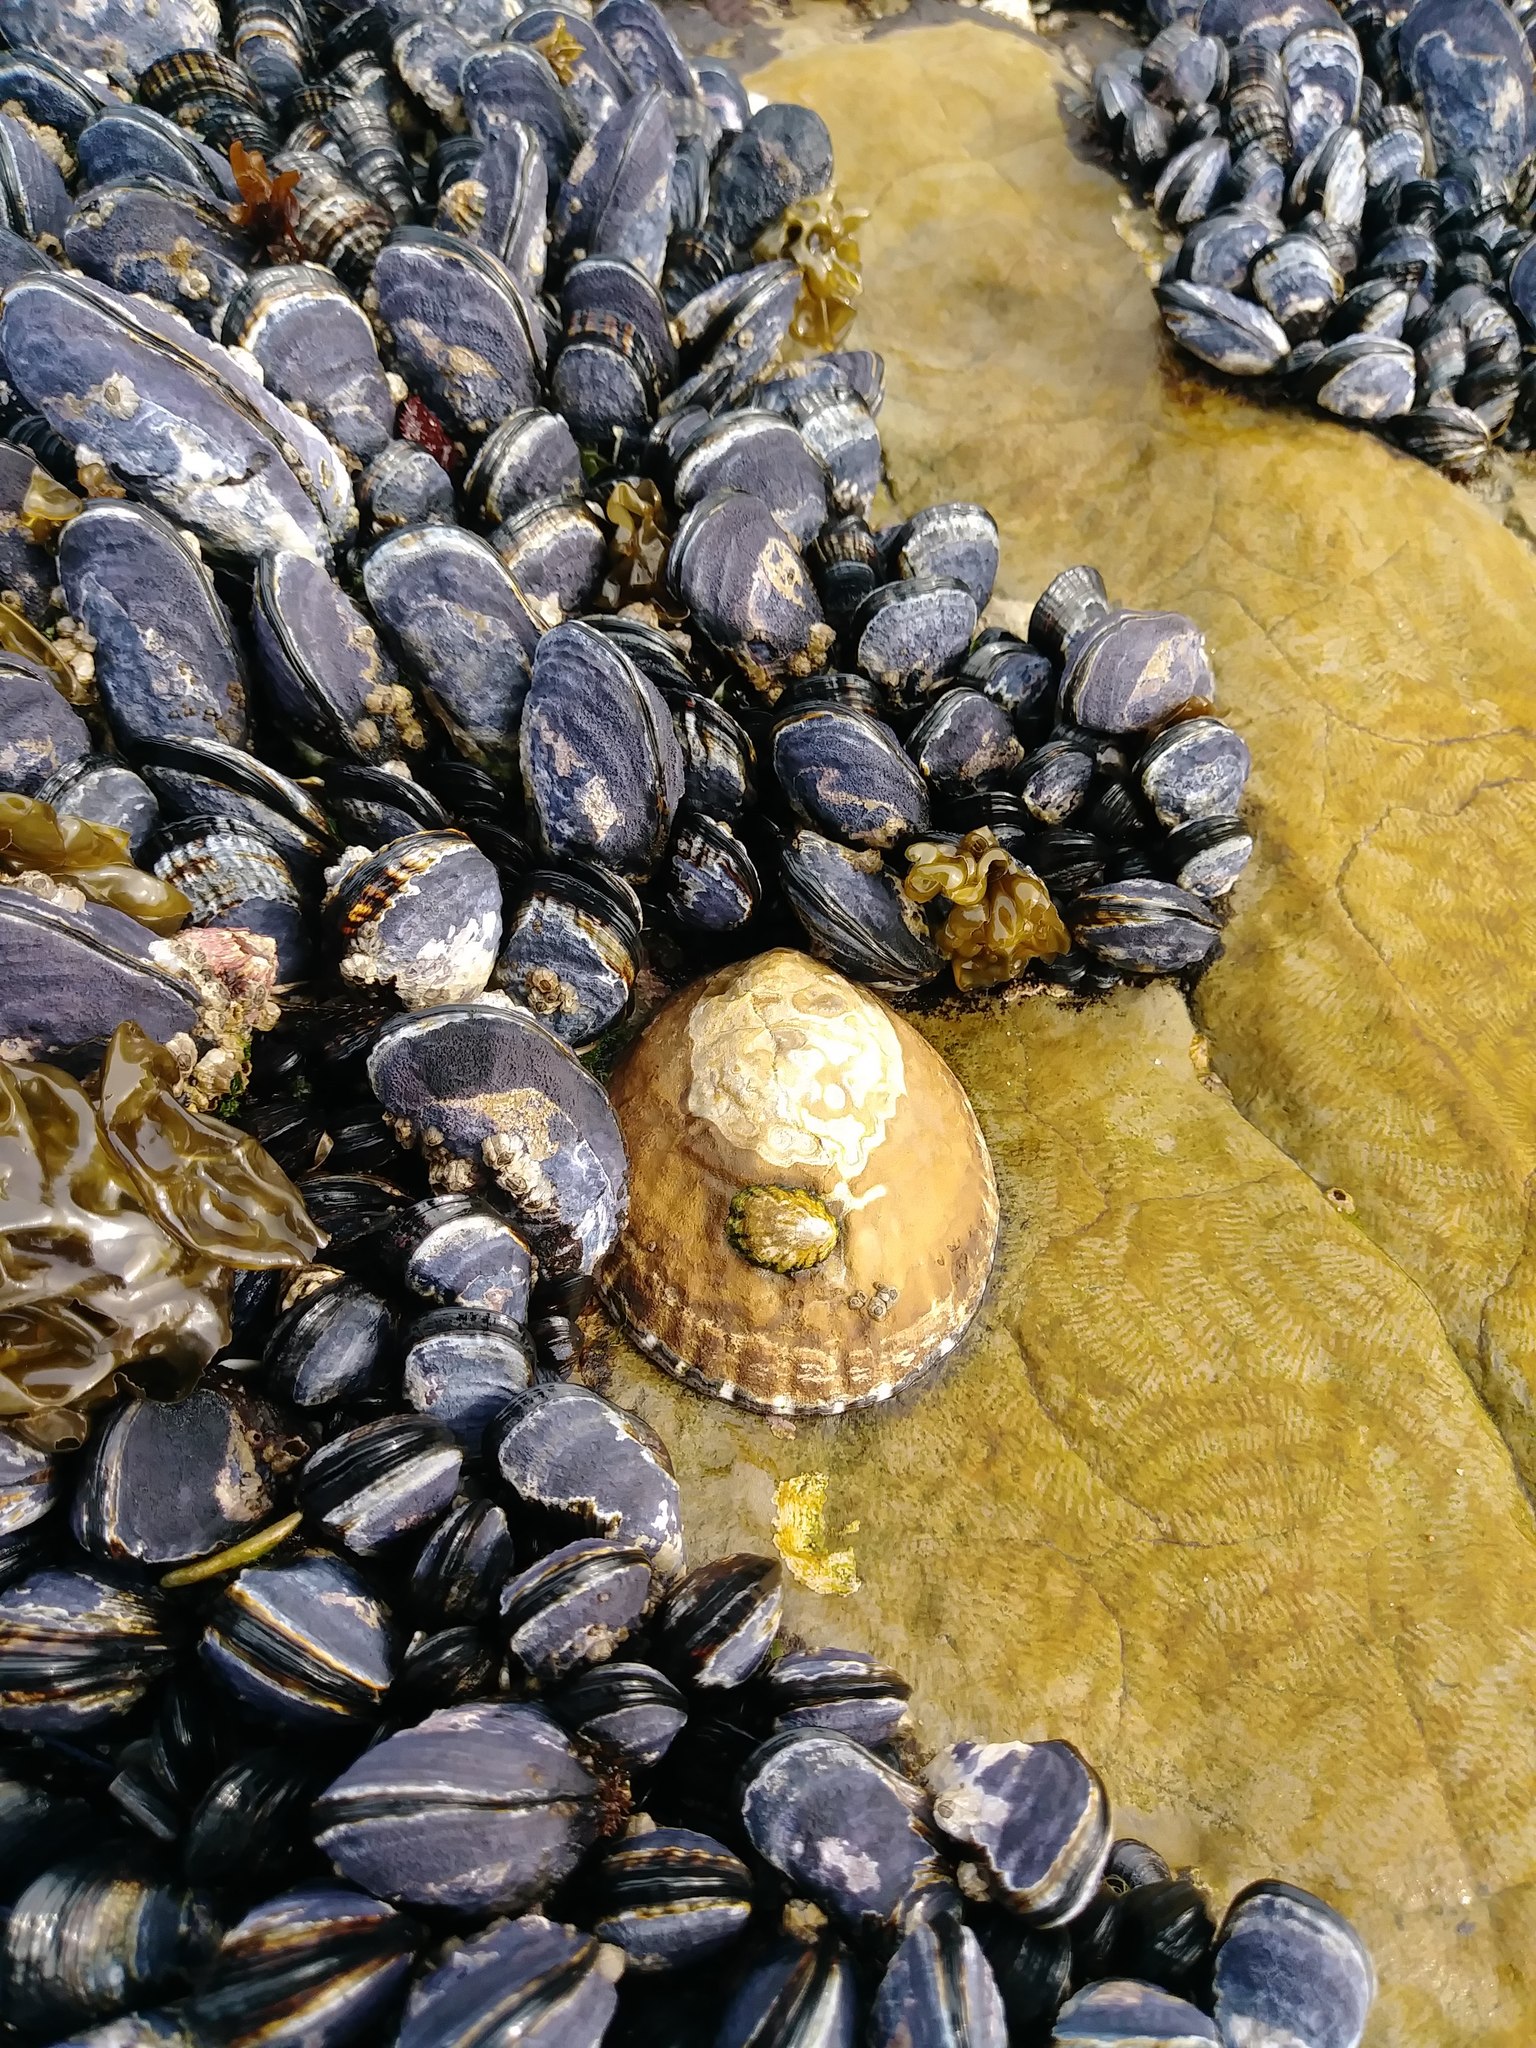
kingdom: Animalia
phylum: Mollusca
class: Gastropoda
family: Lottiidae
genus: Lottia
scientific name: Lottia gigantea
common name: Owl limpet
